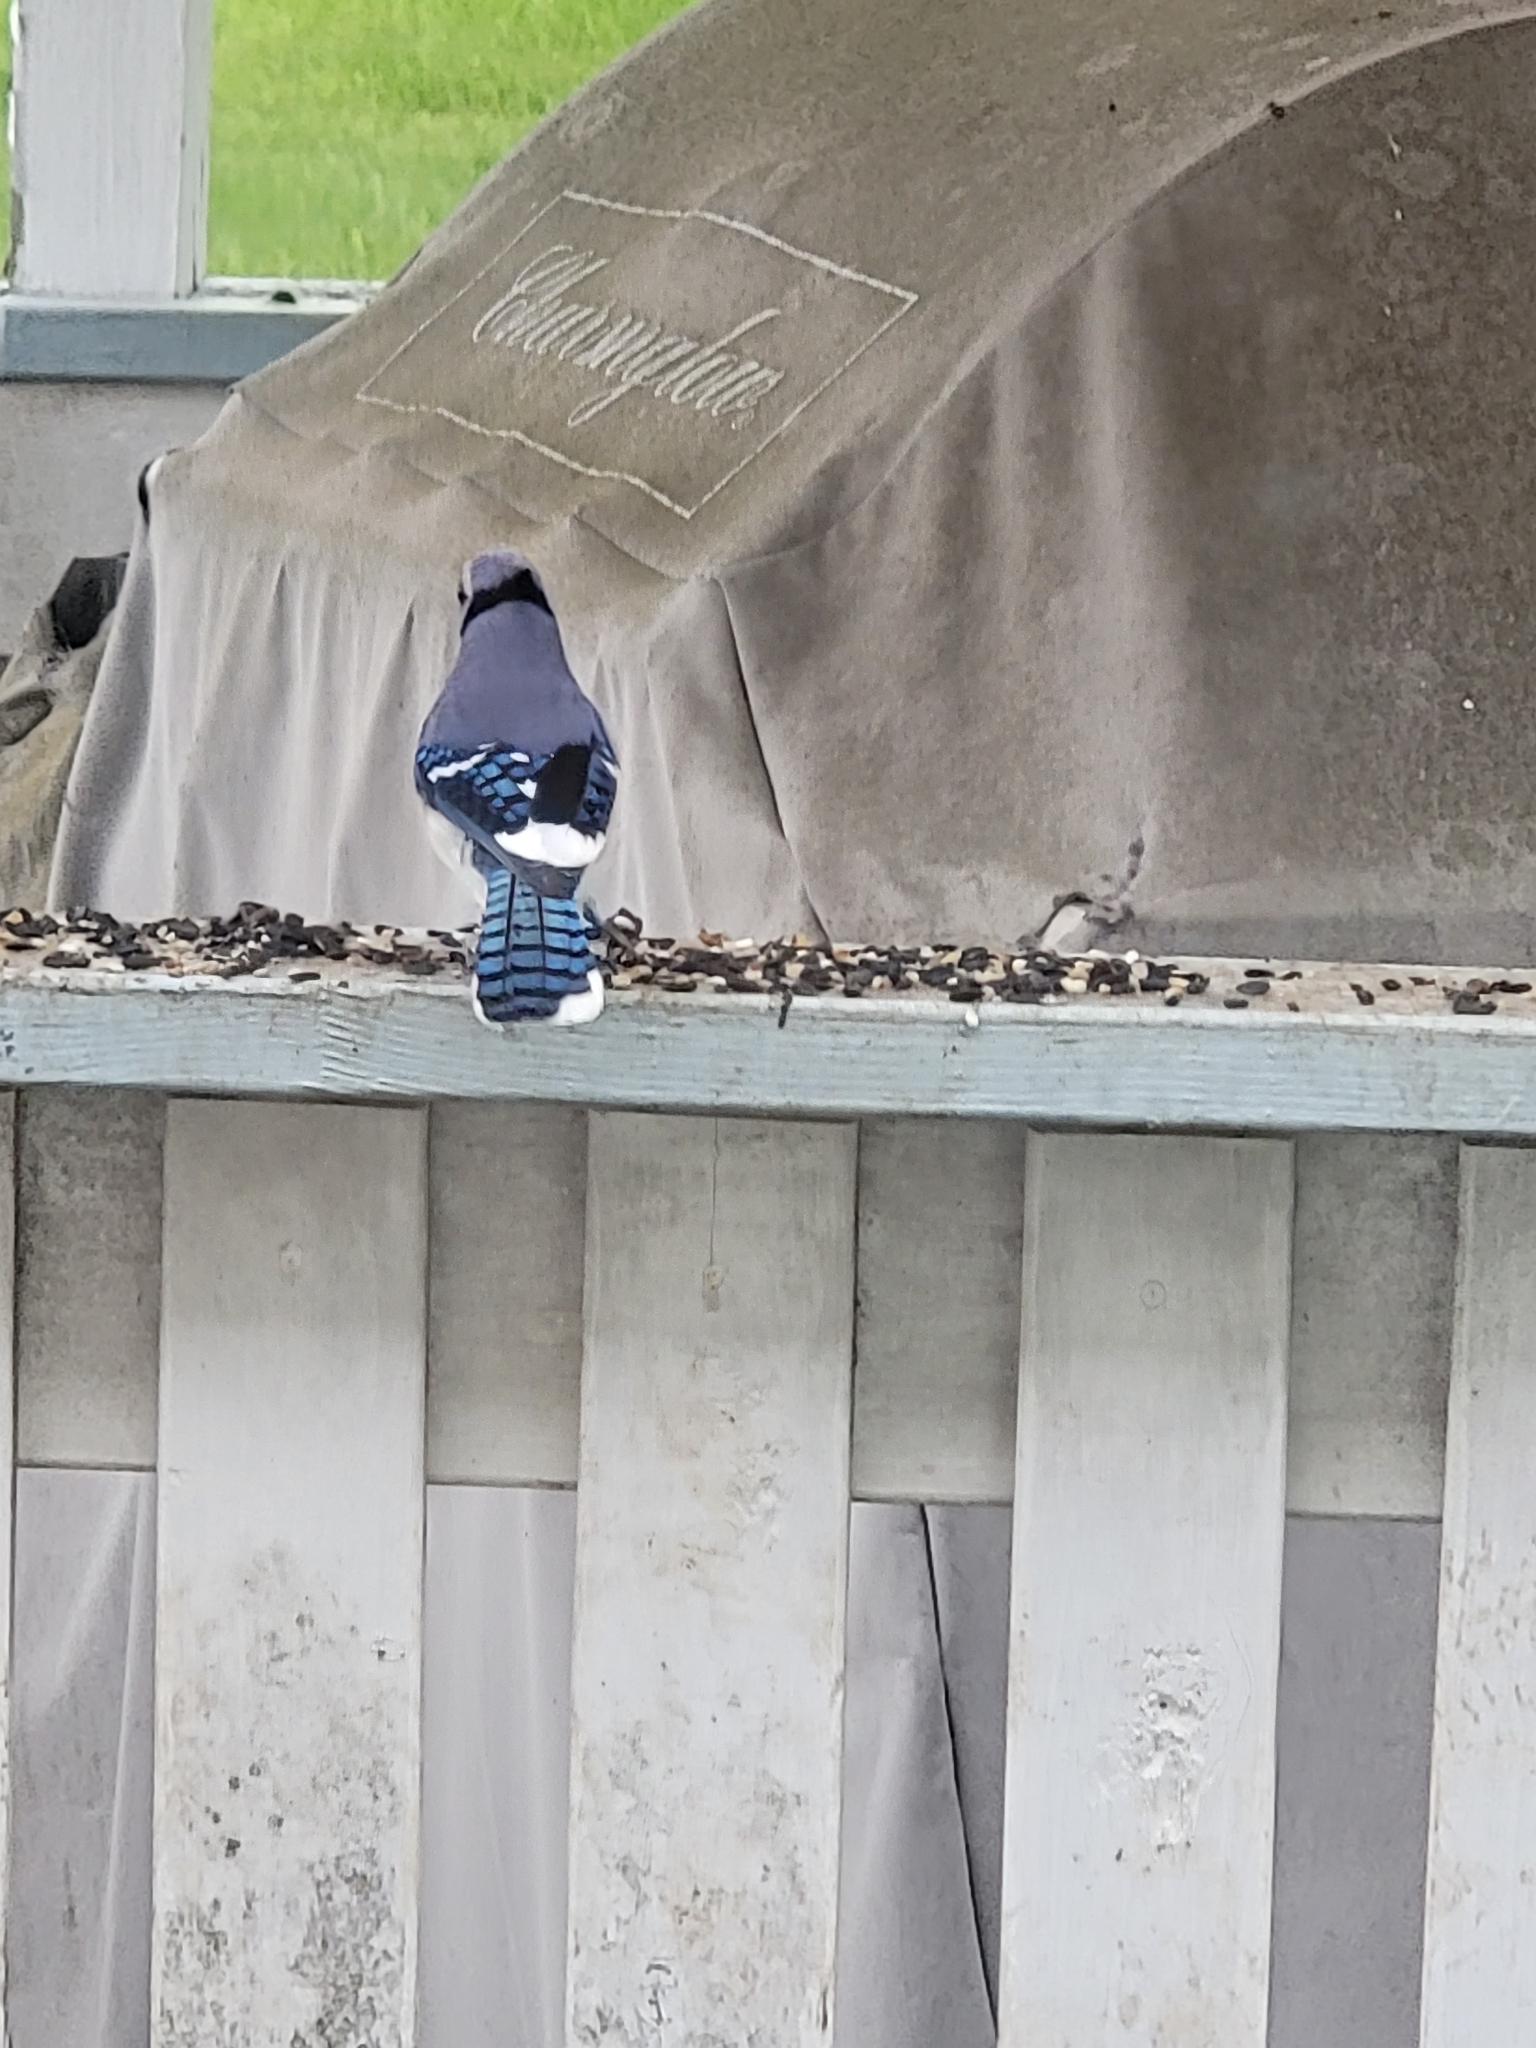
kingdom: Animalia
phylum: Chordata
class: Aves
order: Passeriformes
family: Corvidae
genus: Cyanocitta
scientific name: Cyanocitta cristata
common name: Blue jay
